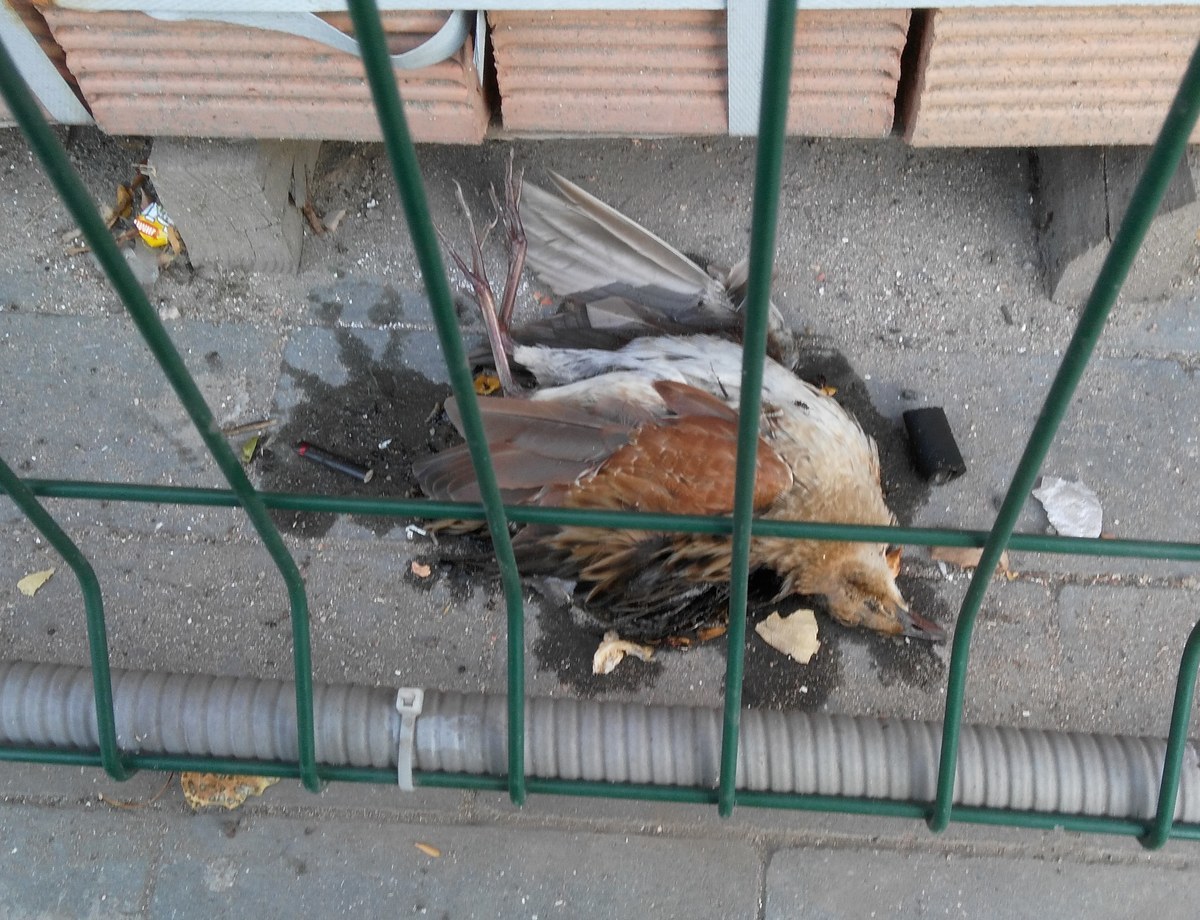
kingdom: Animalia
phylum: Chordata
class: Aves
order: Gruiformes
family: Rallidae
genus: Crex
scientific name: Crex crex
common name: Corn crake
